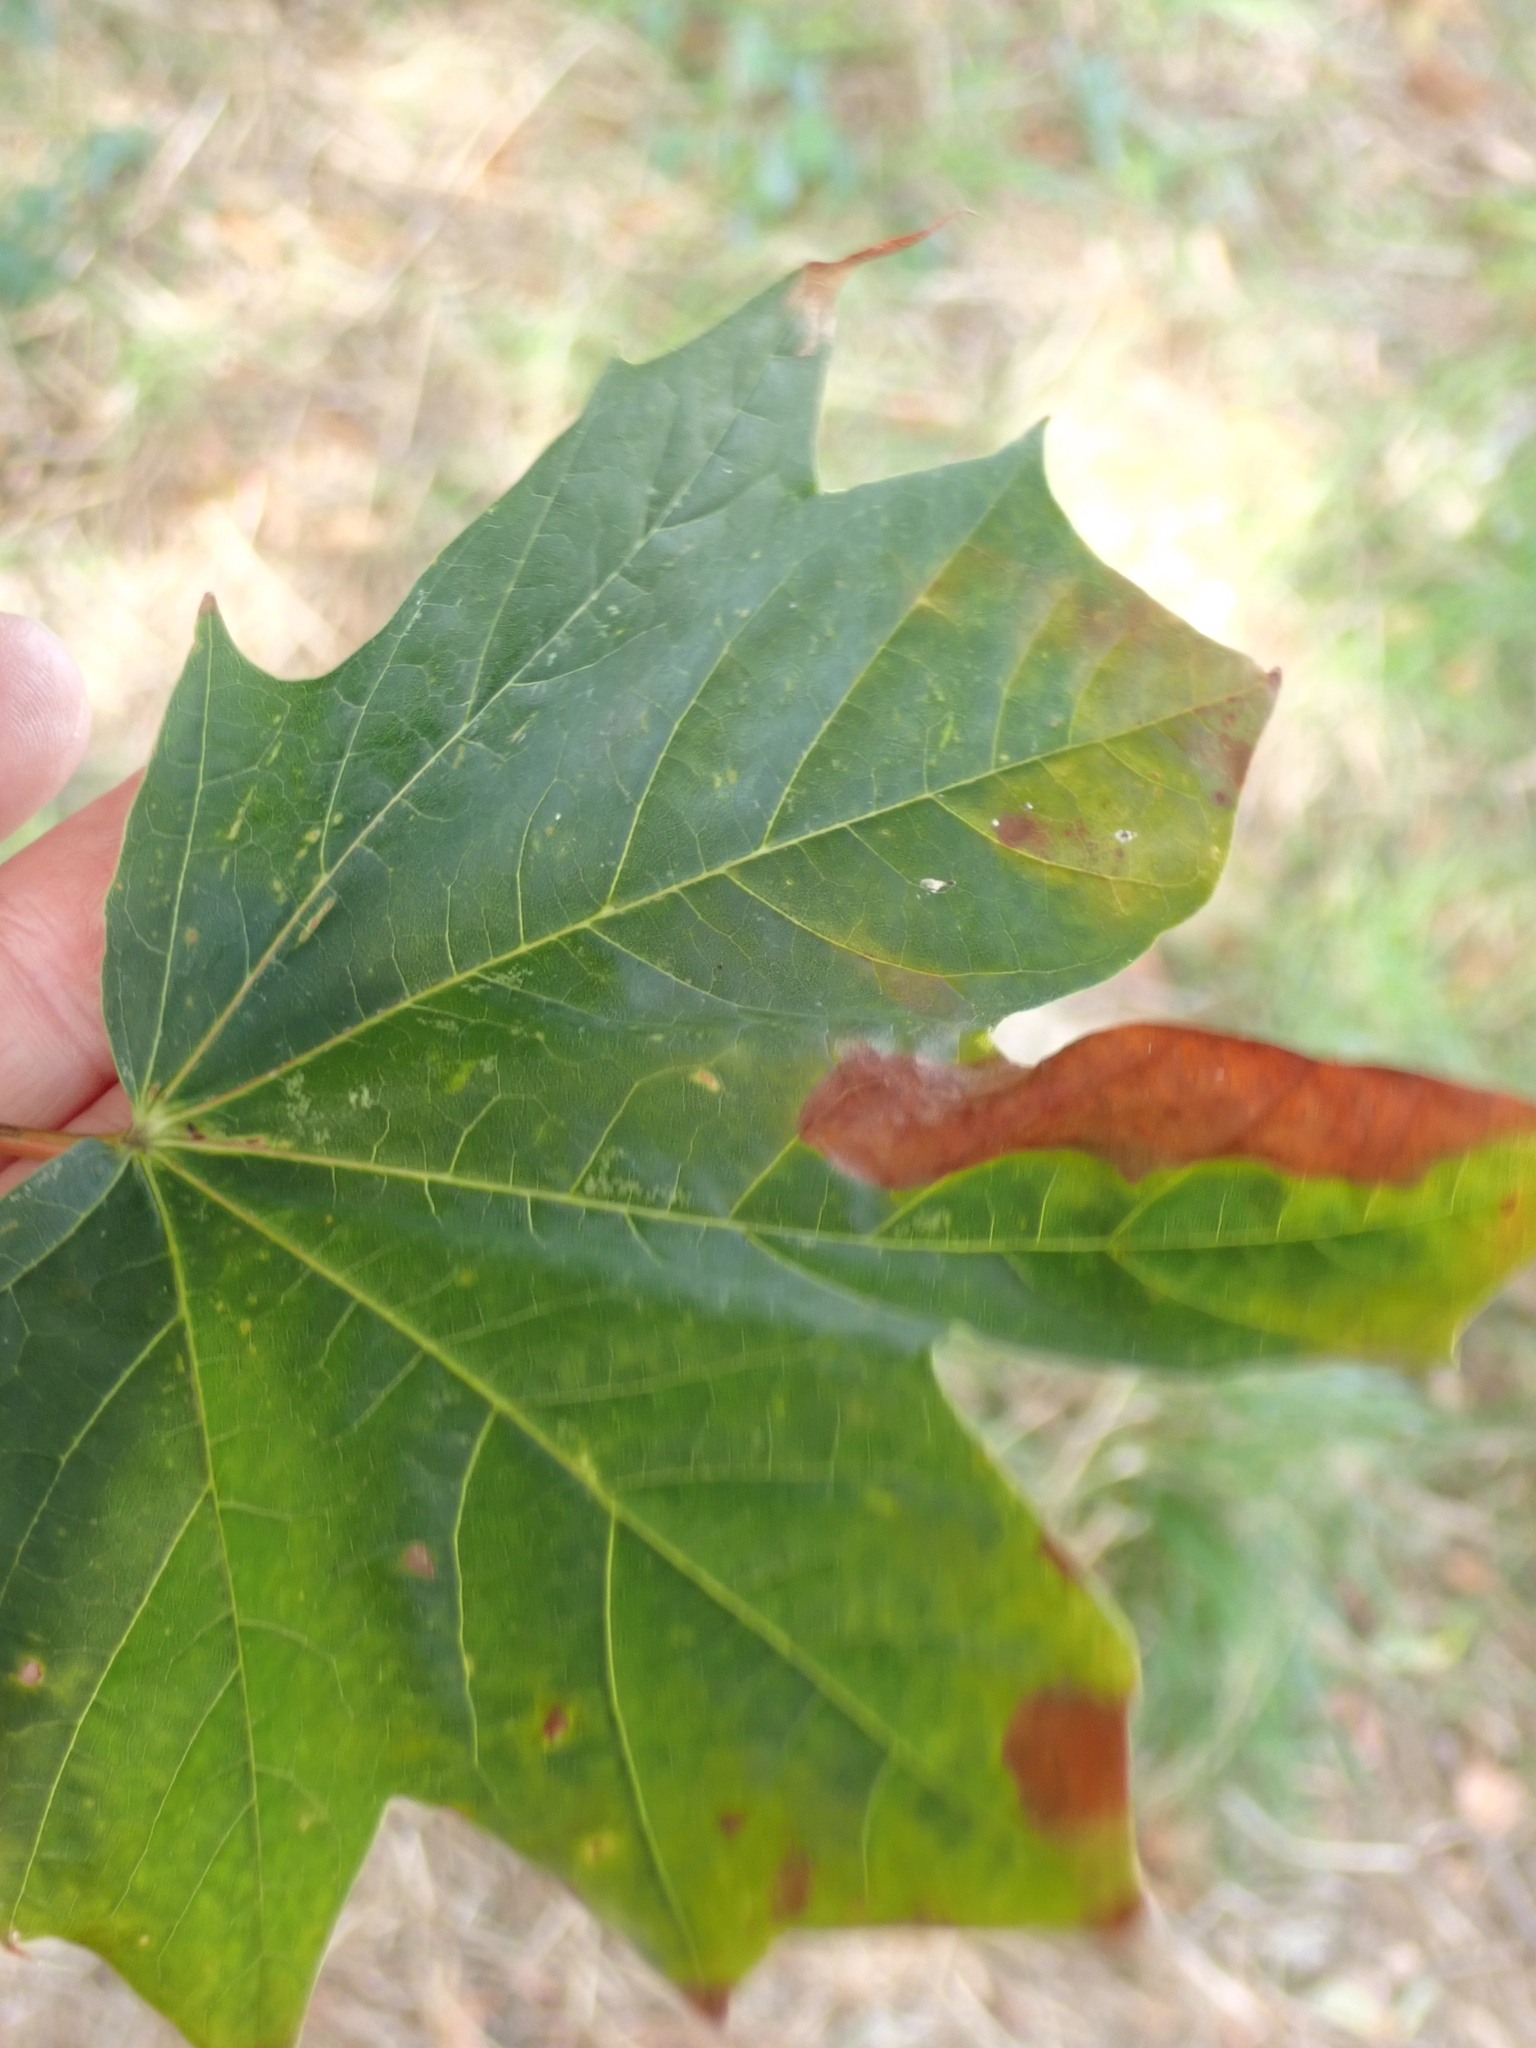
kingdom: Plantae
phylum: Tracheophyta
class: Magnoliopsida
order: Sapindales
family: Sapindaceae
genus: Acer
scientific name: Acer platanoides
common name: Norway maple
